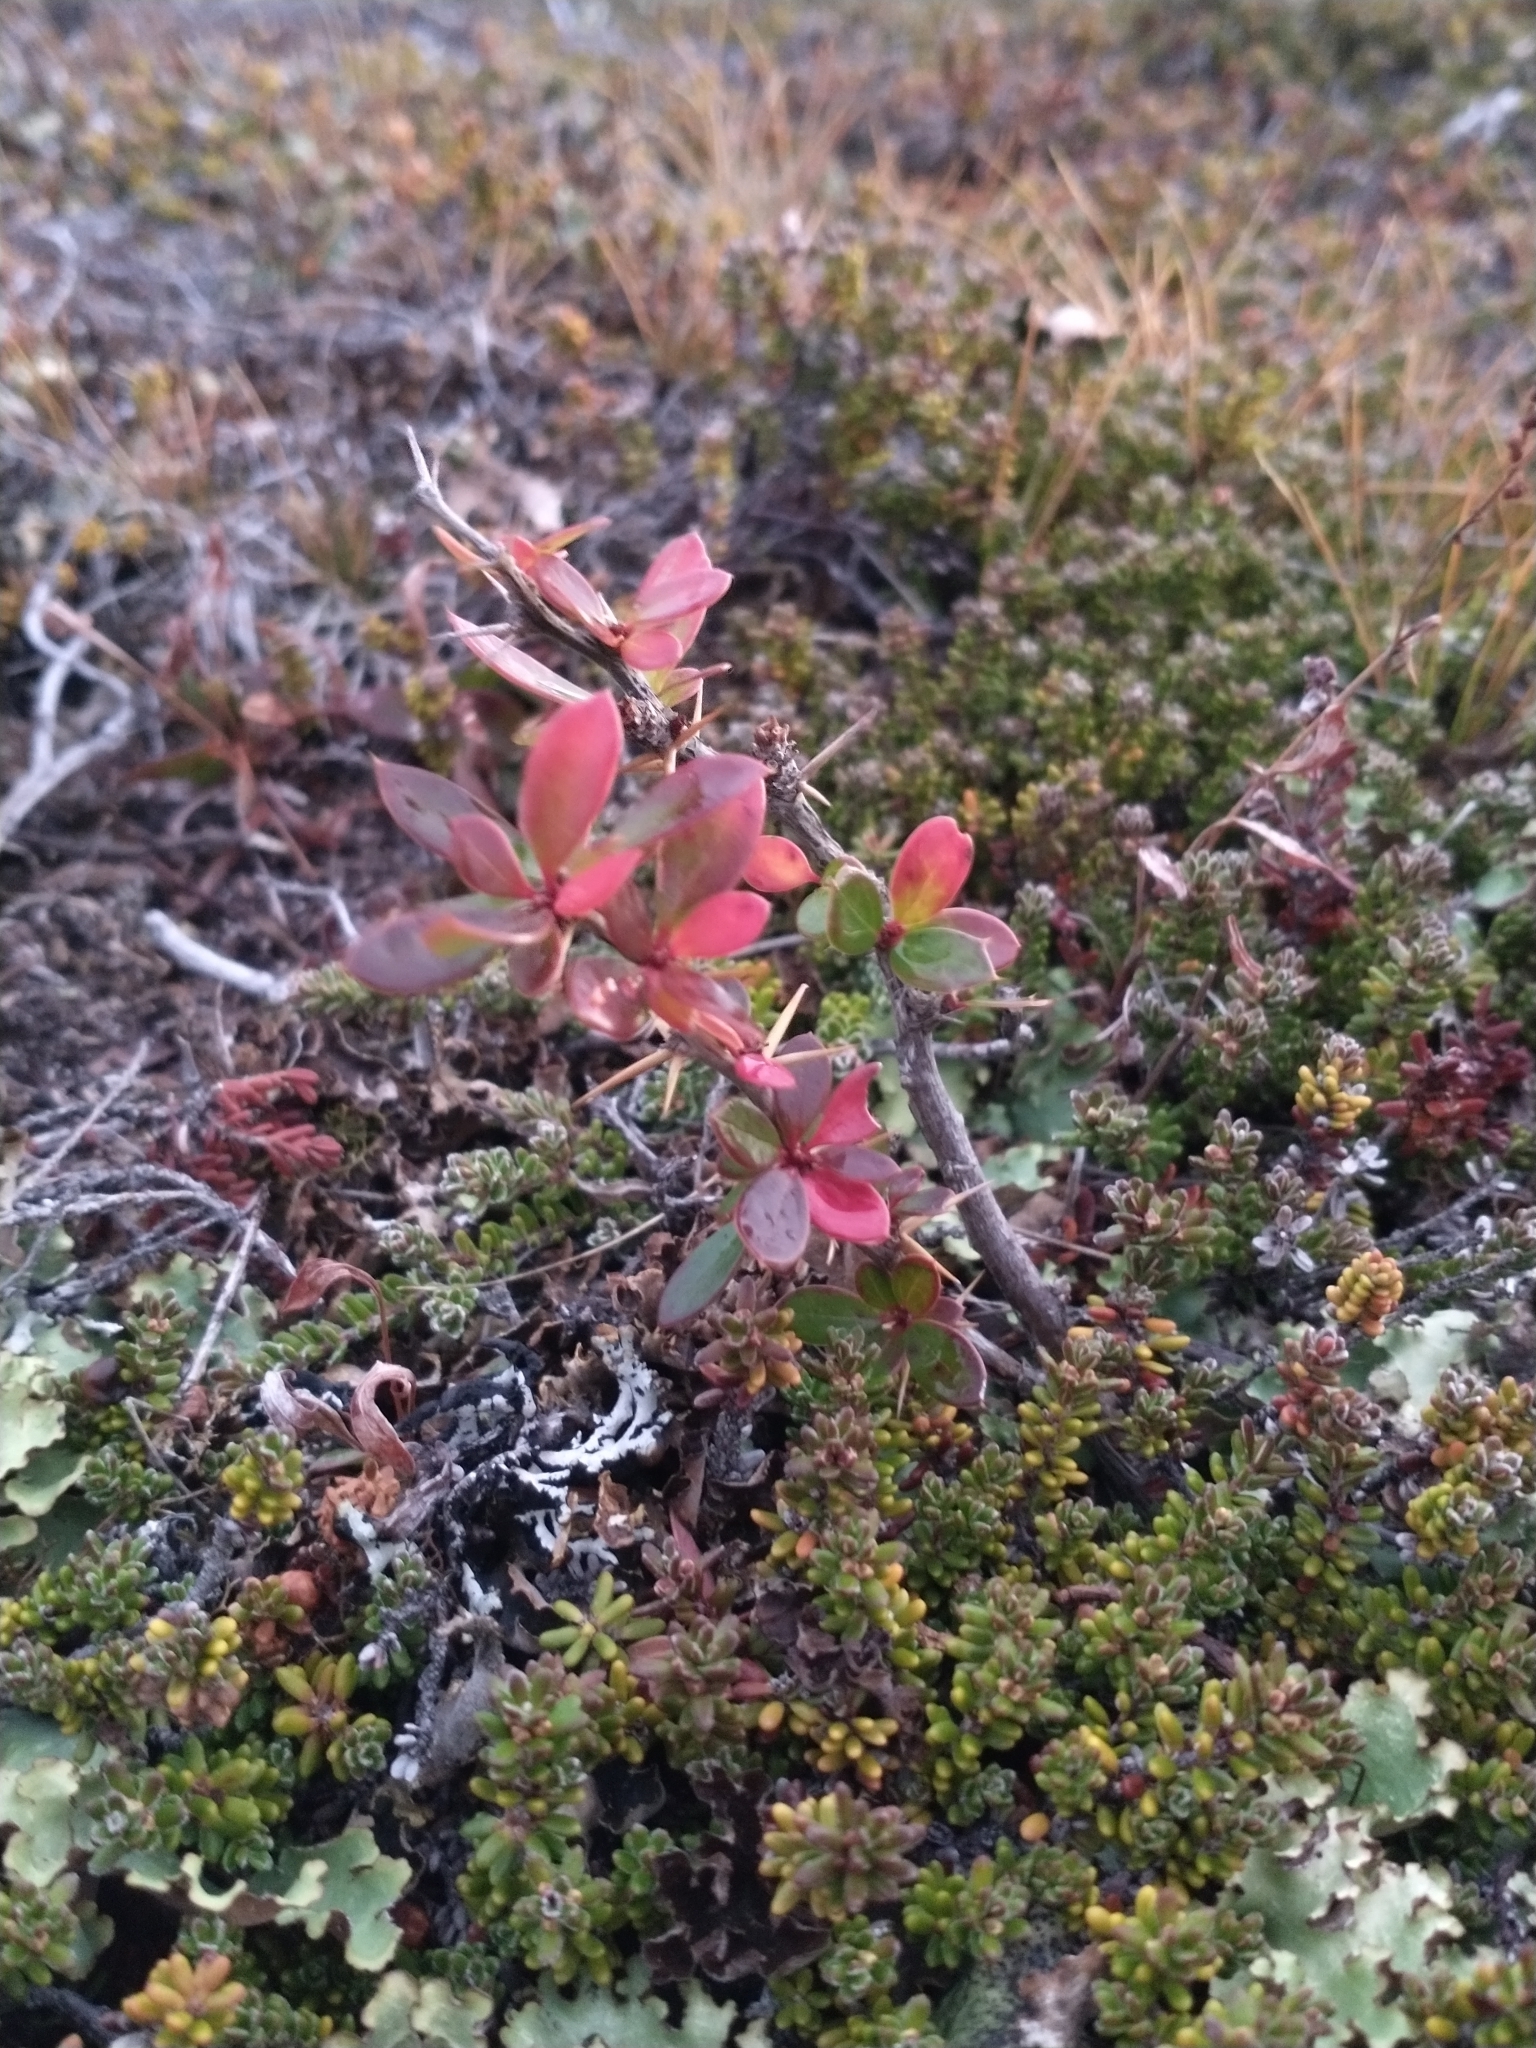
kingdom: Plantae
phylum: Tracheophyta
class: Magnoliopsida
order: Ranunculales
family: Berberidaceae
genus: Berberis
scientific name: Berberis microphylla
